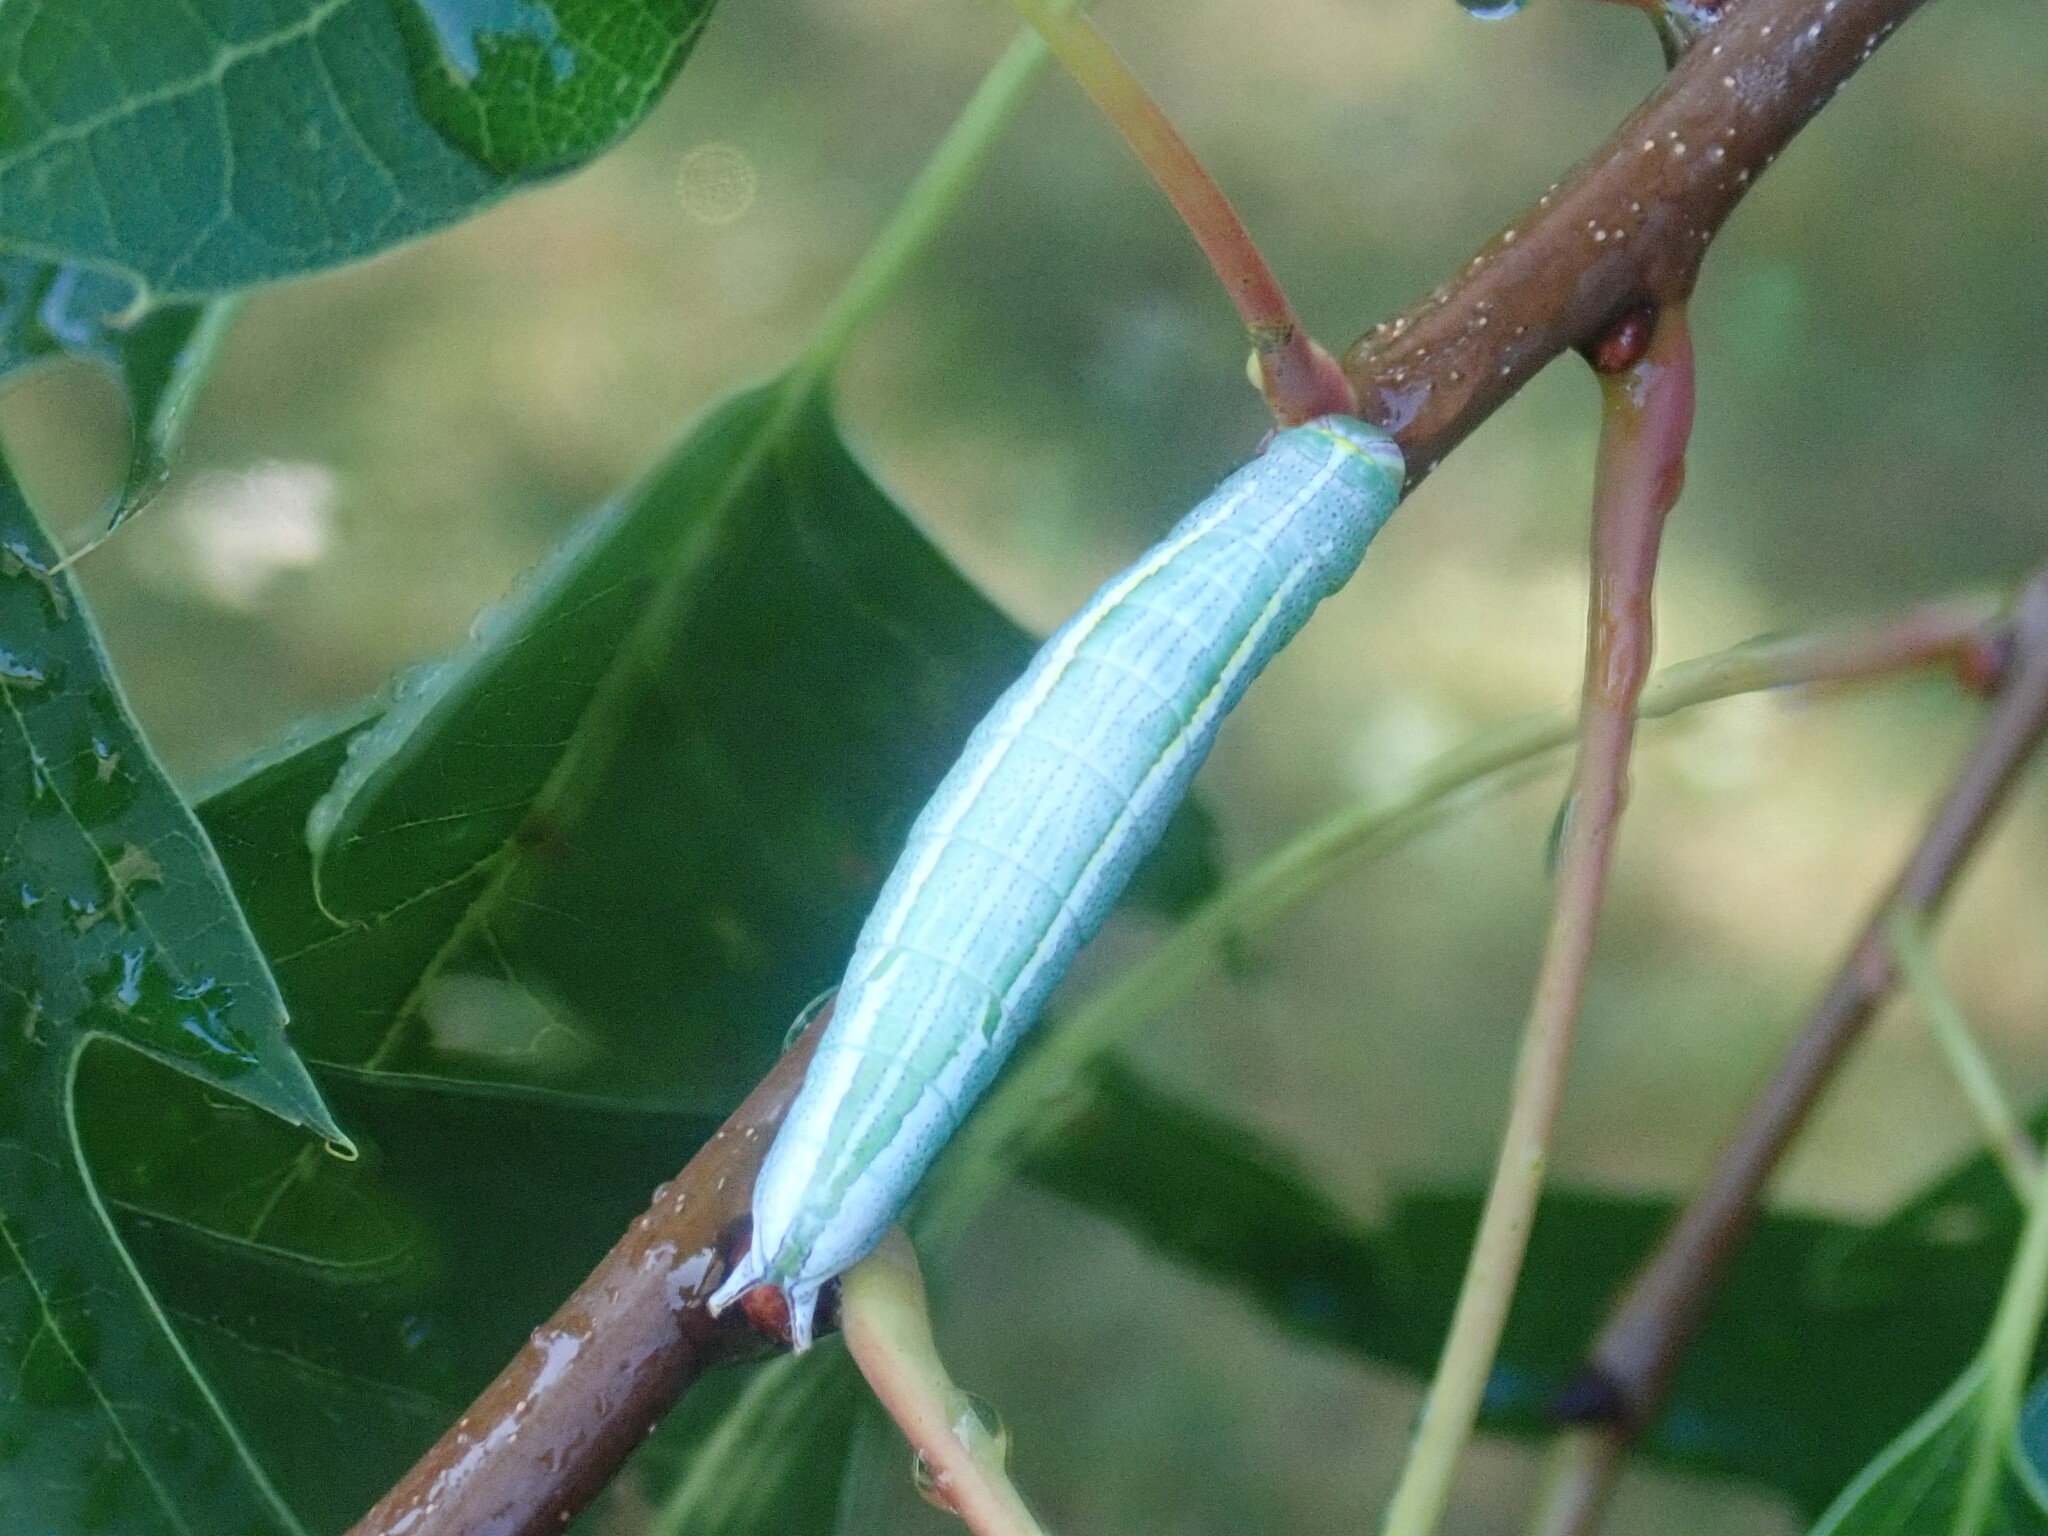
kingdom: Animalia
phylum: Arthropoda
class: Insecta
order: Lepidoptera
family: Notodontidae
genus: Disphragis
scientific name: Disphragis Cecrita guttivitta
